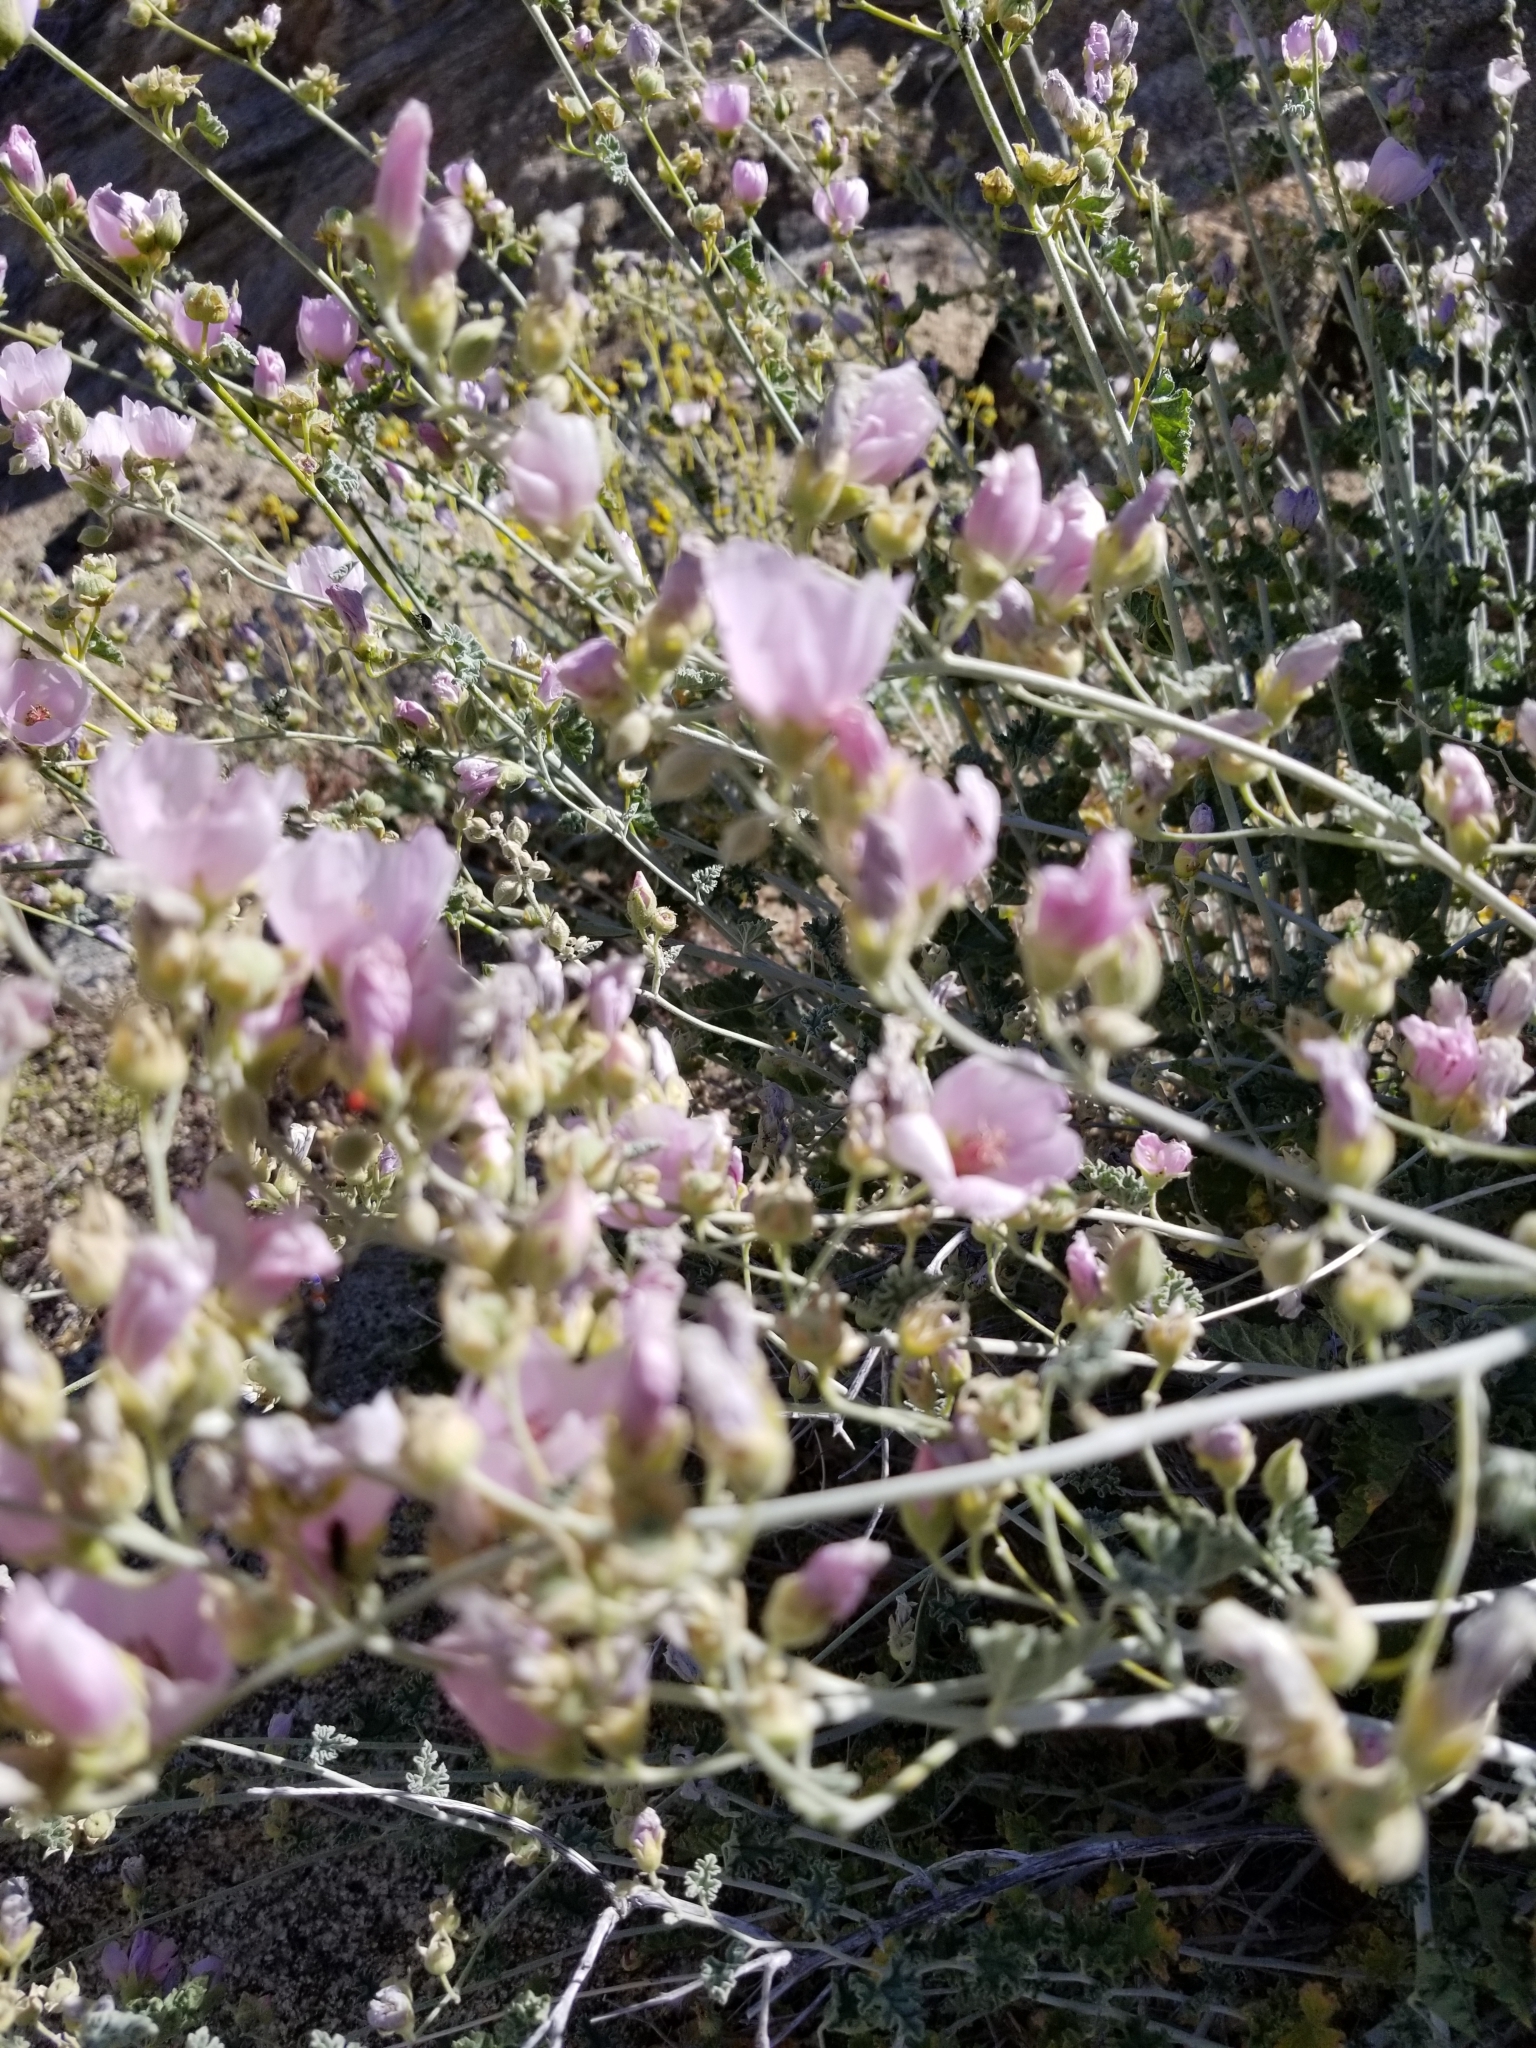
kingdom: Plantae
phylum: Tracheophyta
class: Magnoliopsida
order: Malvales
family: Malvaceae
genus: Sphaeralcea
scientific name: Sphaeralcea ambigua
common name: Apricot globe-mallow
